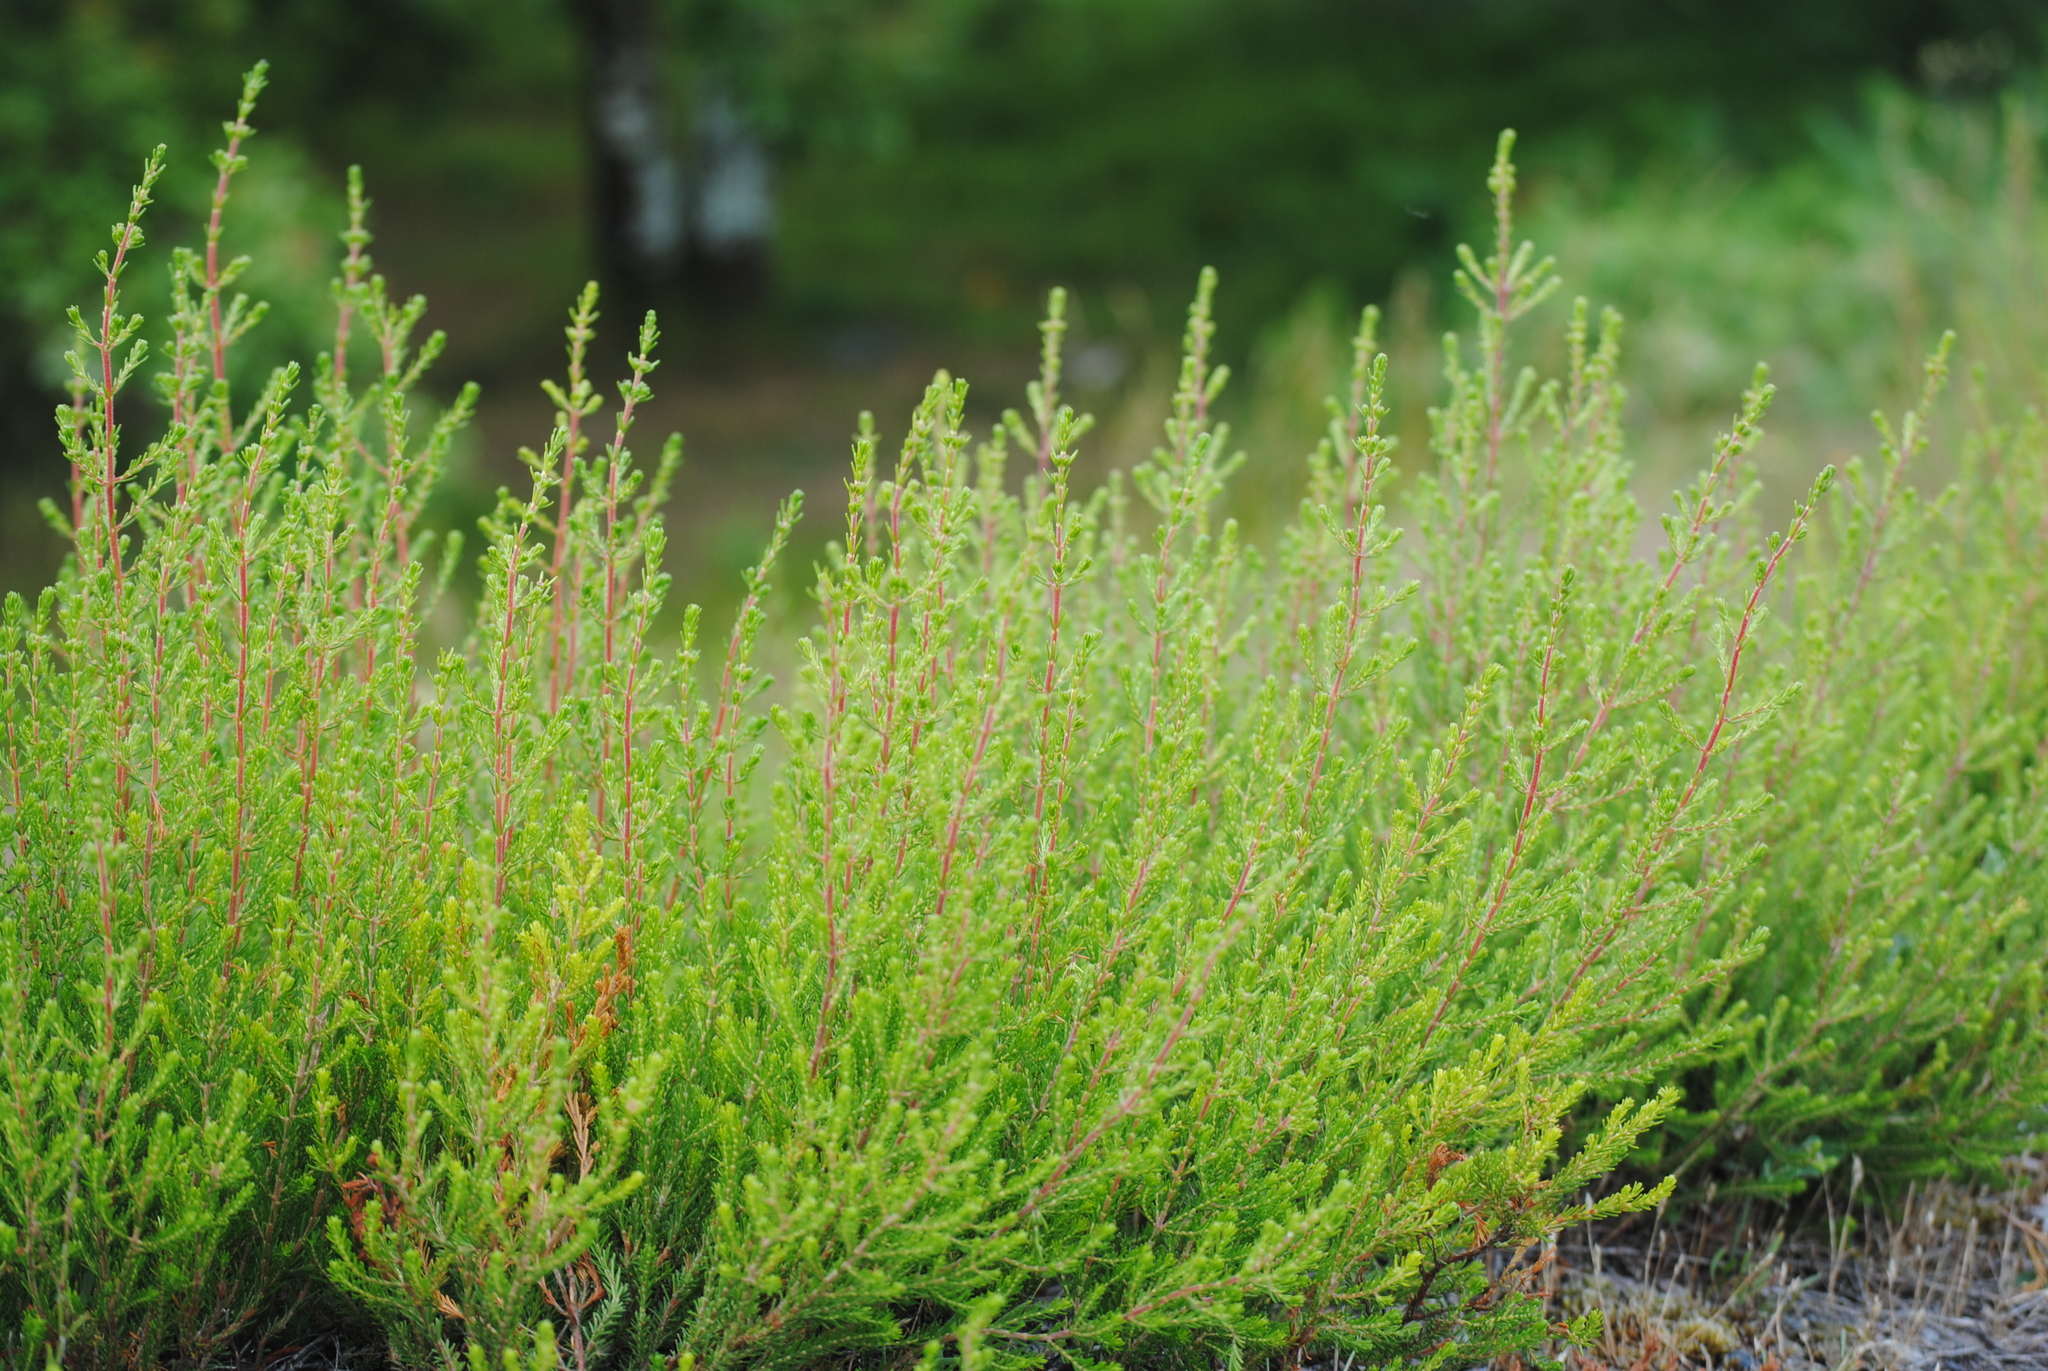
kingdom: Plantae
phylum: Tracheophyta
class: Magnoliopsida
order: Ericales
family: Ericaceae
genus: Calluna
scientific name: Calluna vulgaris
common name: Heather
